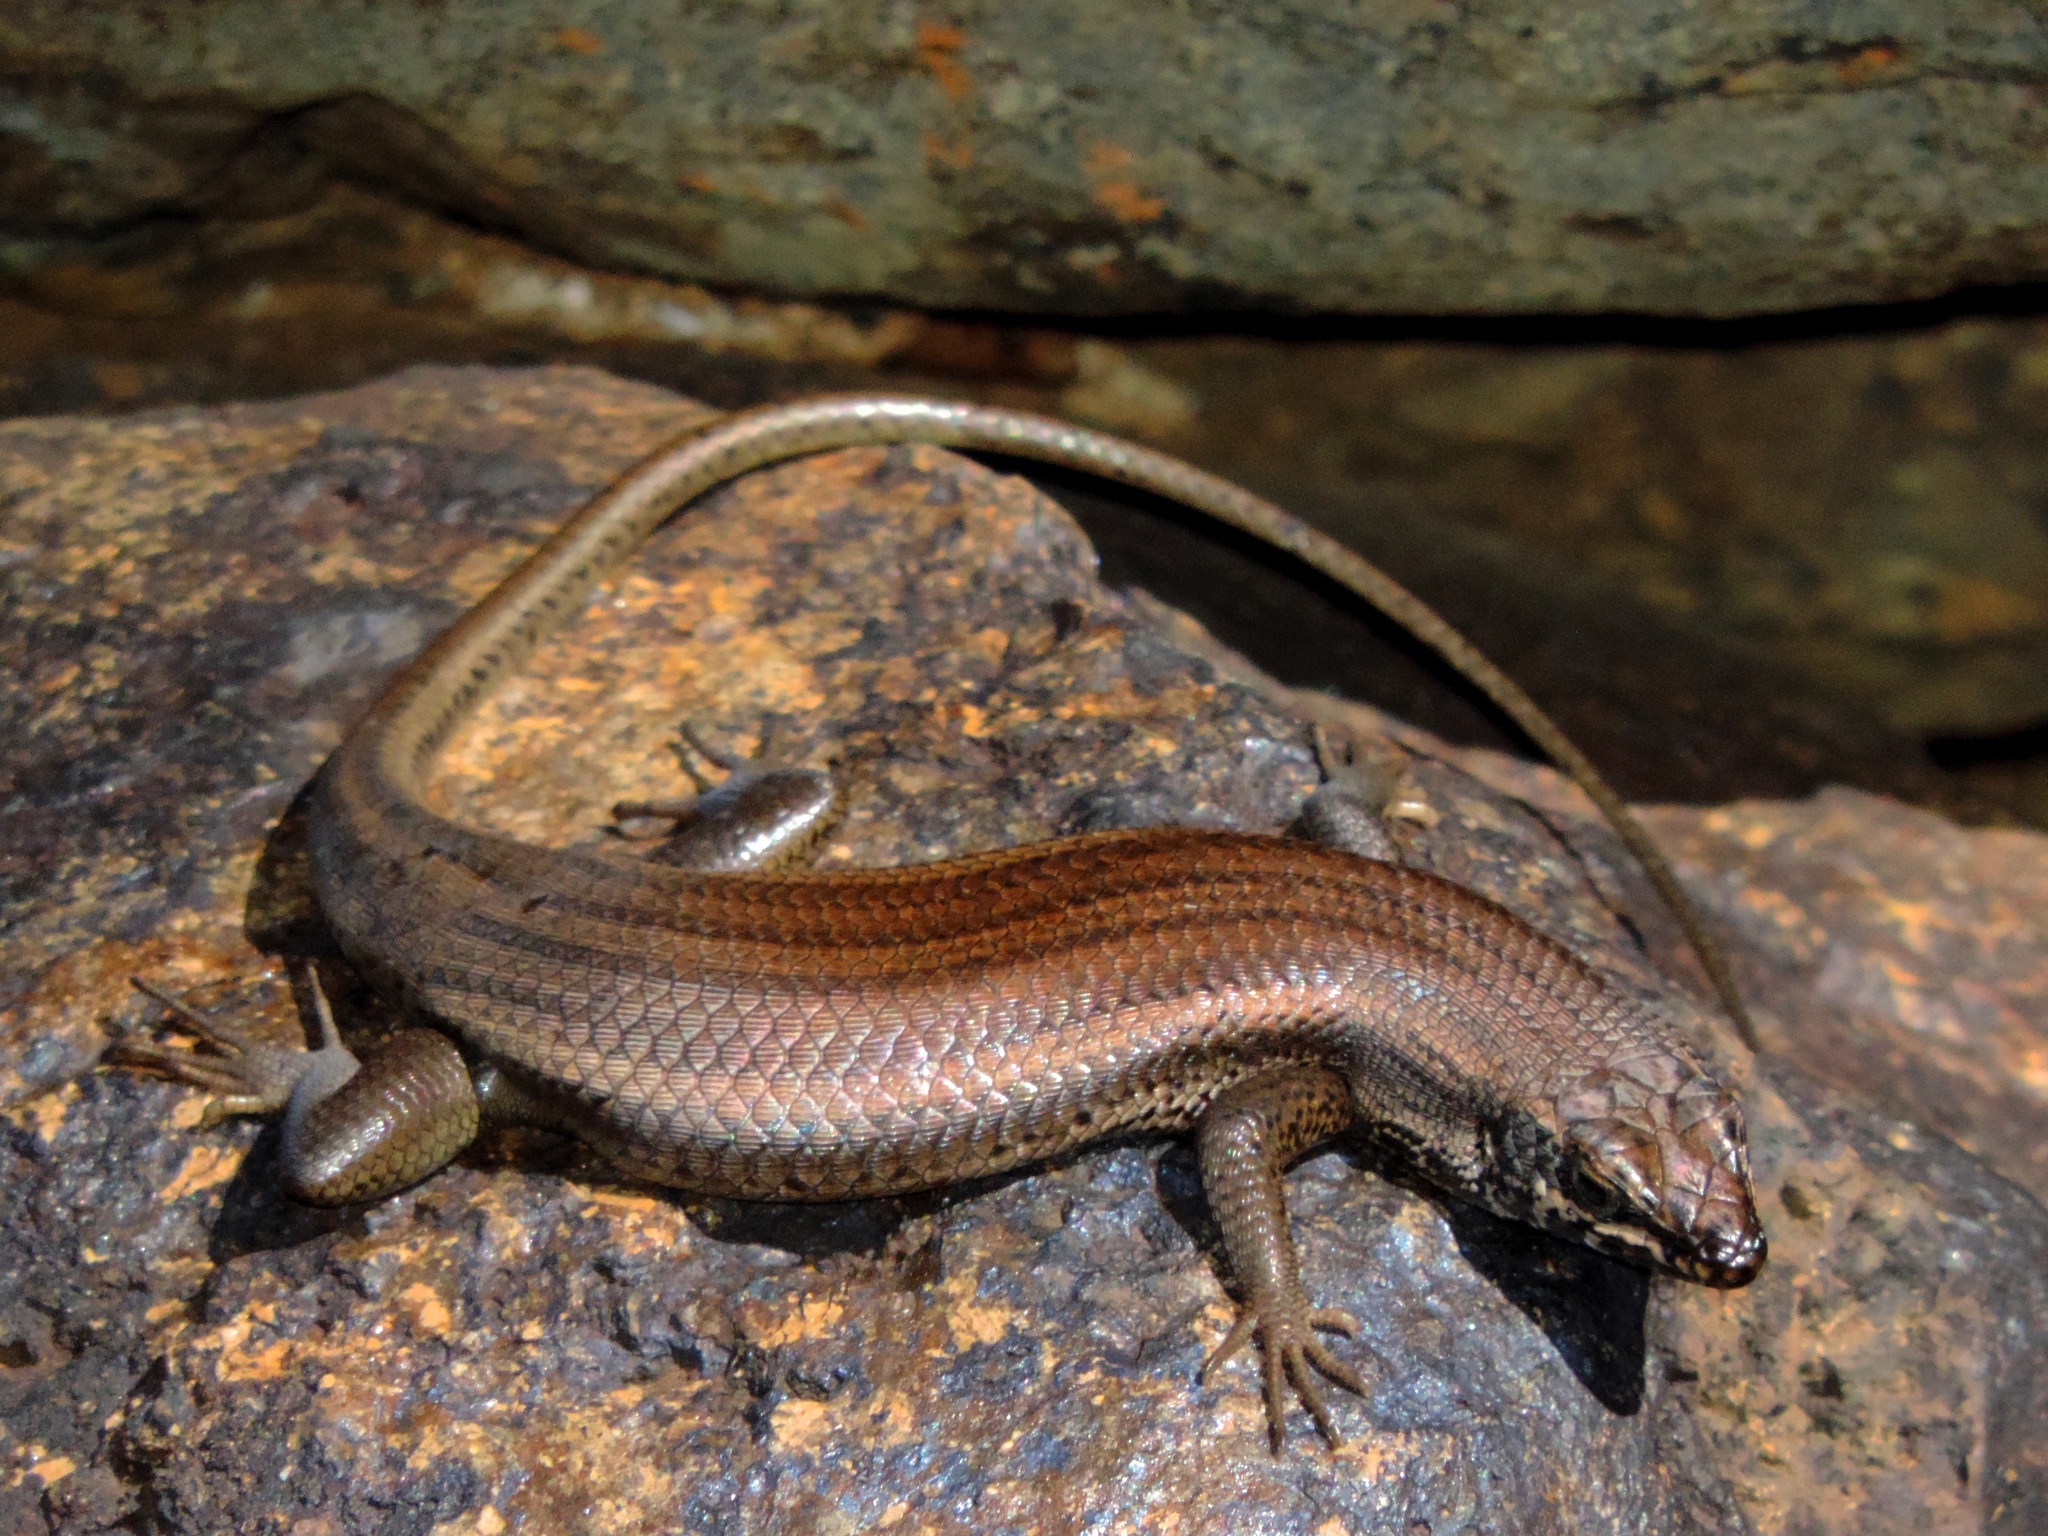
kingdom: Animalia
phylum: Chordata
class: Squamata
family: Scincidae
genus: Trachylepis
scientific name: Trachylepis sulcata
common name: Western rock skink
